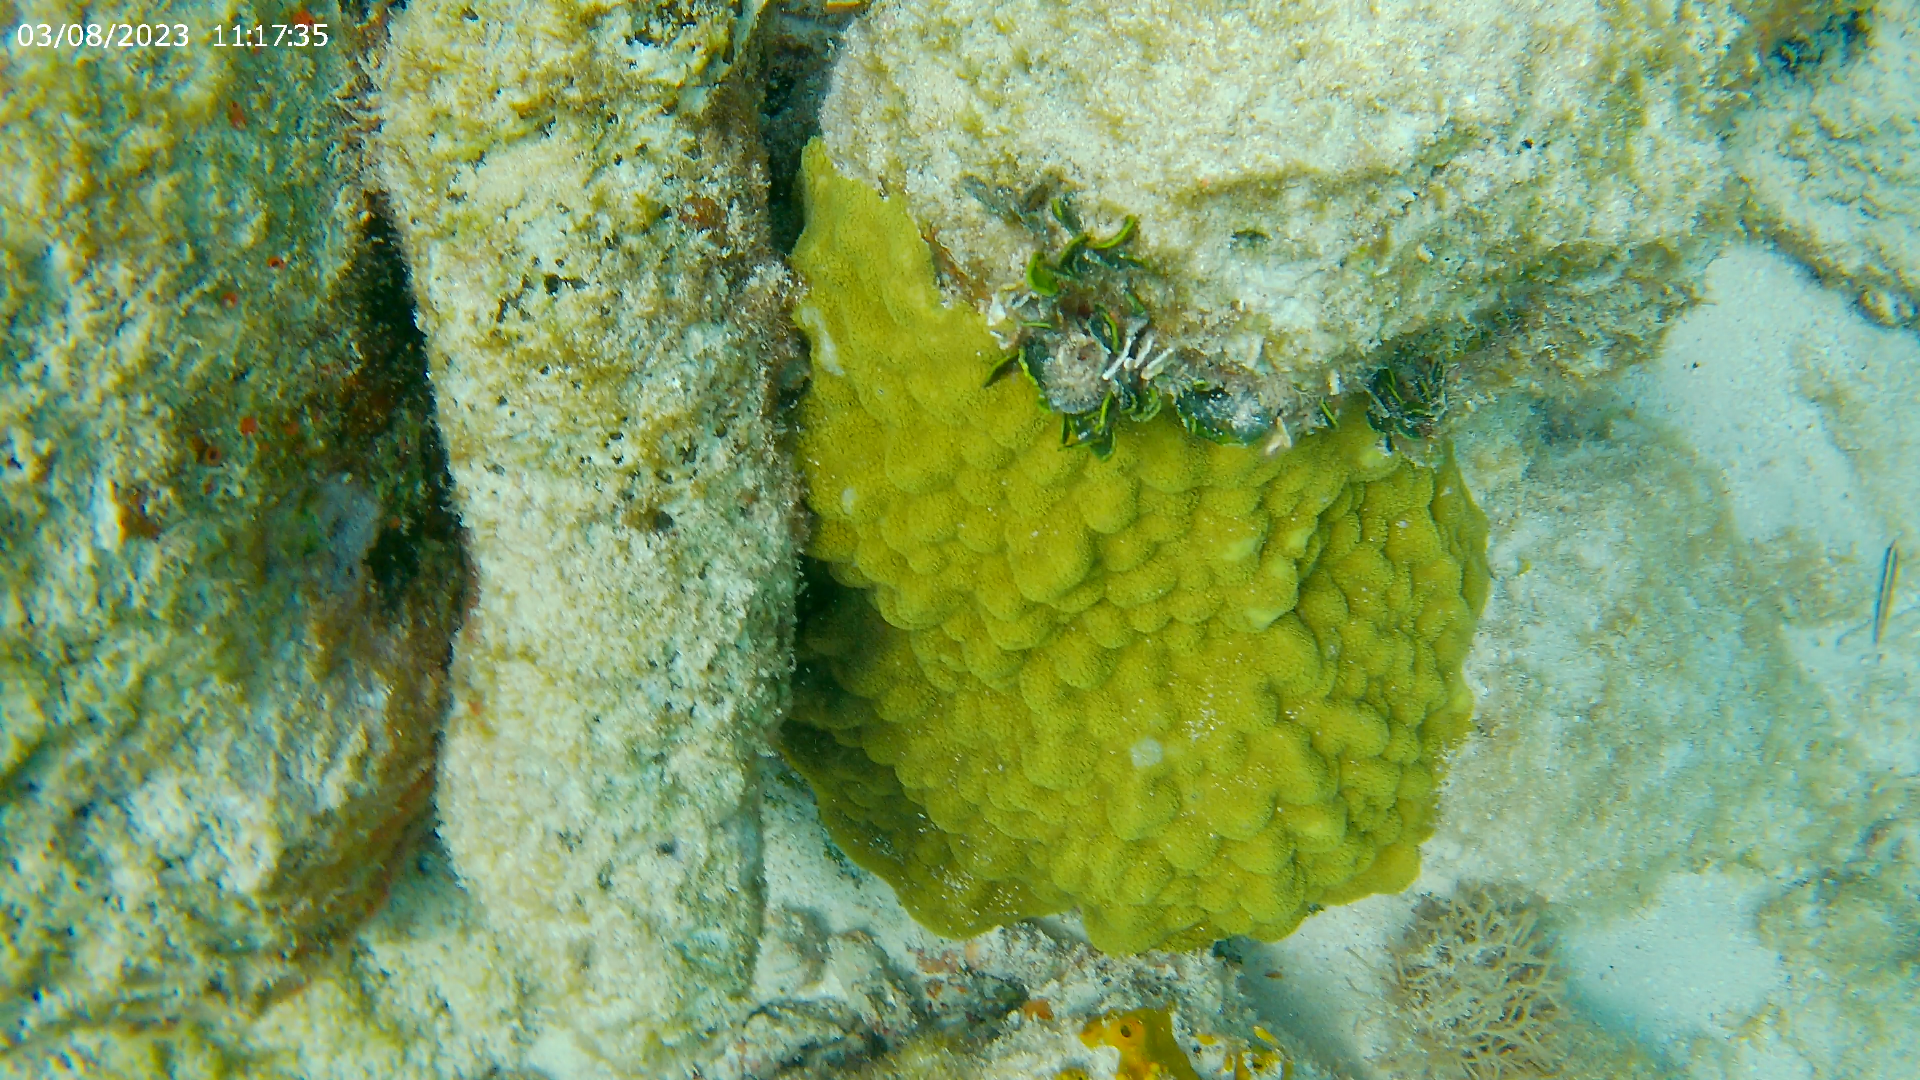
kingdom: Animalia
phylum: Cnidaria
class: Anthozoa
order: Scleractinia
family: Poritidae
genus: Porites
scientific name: Porites astreoides
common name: Mustard hill coral
